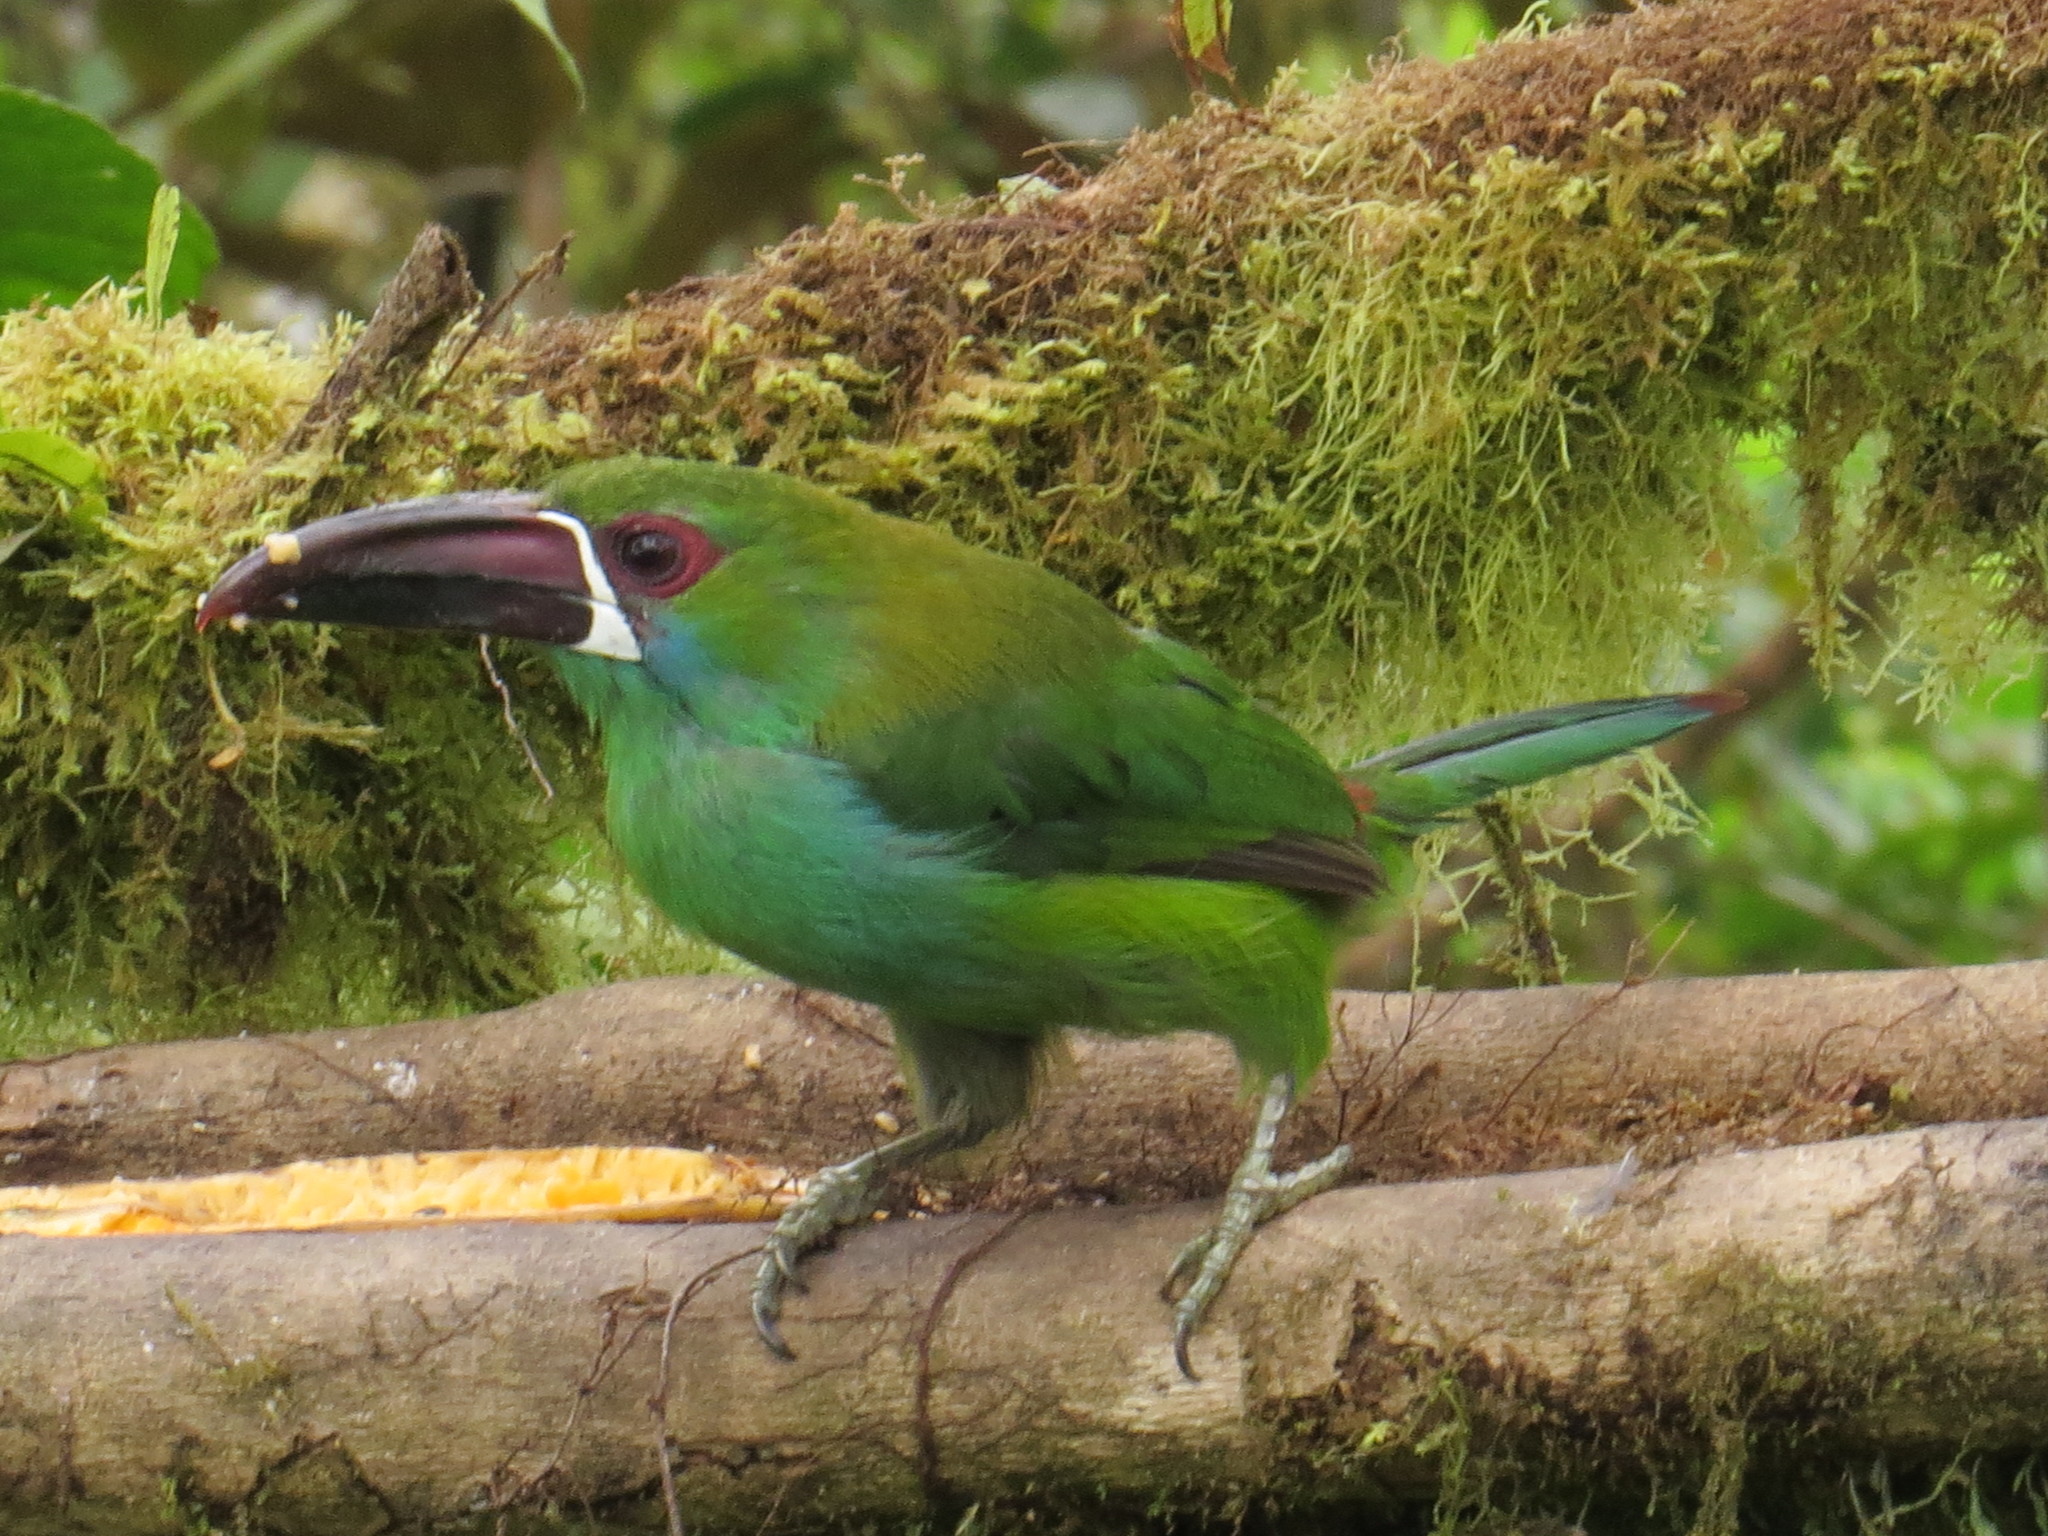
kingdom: Animalia
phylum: Chordata
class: Aves
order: Piciformes
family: Ramphastidae
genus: Aulacorhynchus
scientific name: Aulacorhynchus haematopygus
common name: Crimson-rumped toucanet
